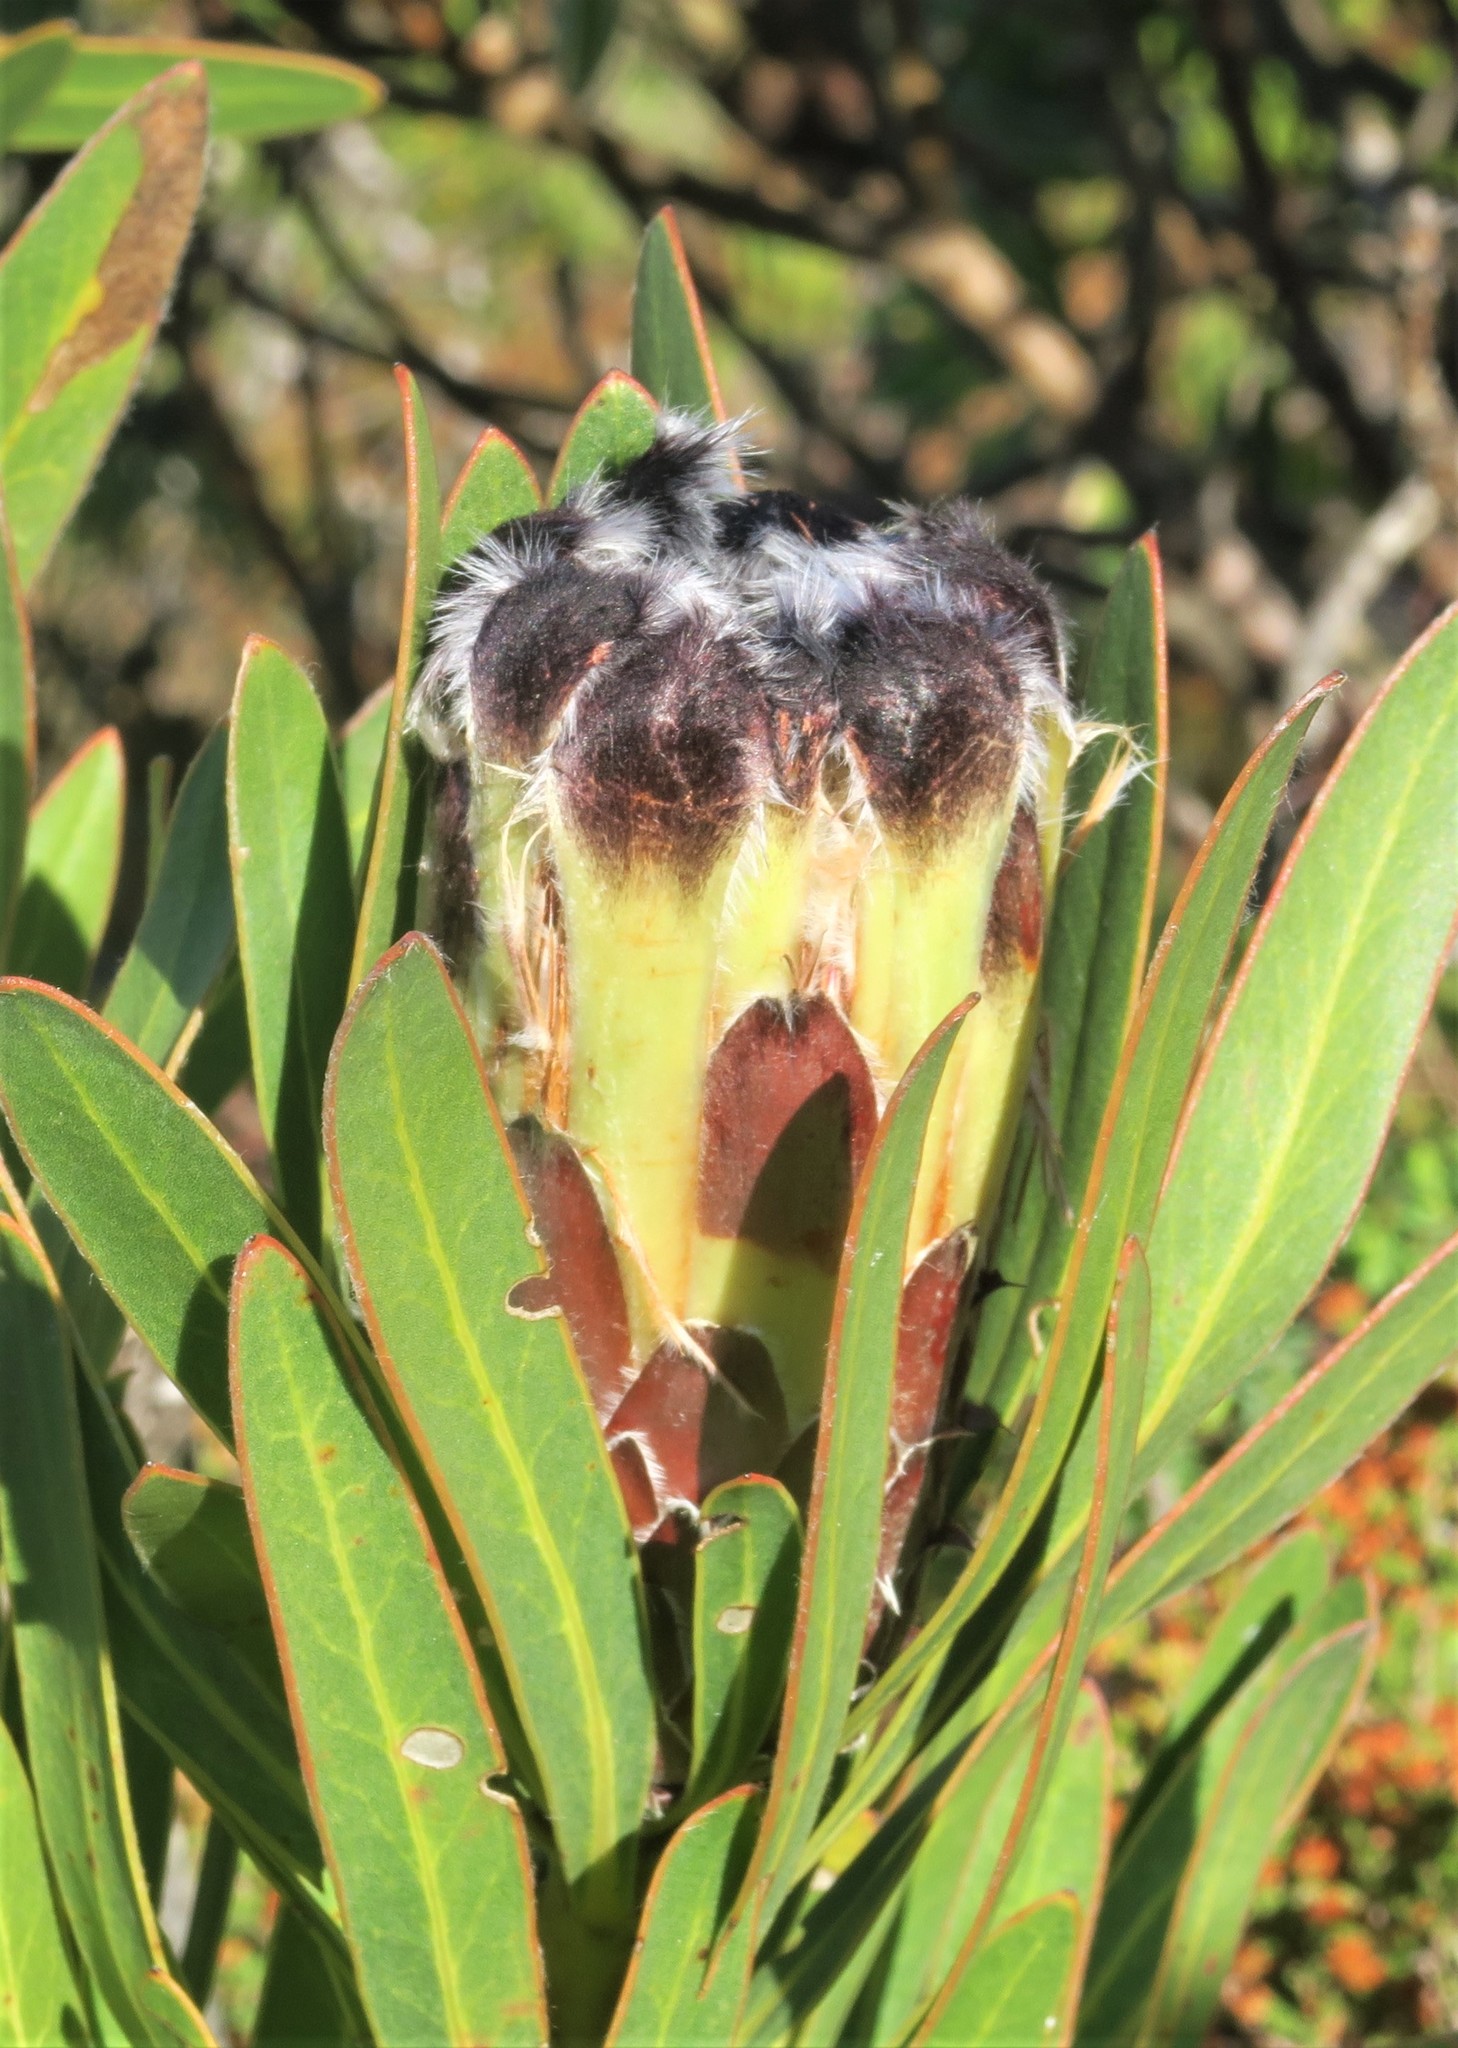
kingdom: Plantae
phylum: Tracheophyta
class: Magnoliopsida
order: Proteales
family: Proteaceae
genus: Protea
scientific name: Protea lepidocarpodendron
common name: Black-bearded protea
